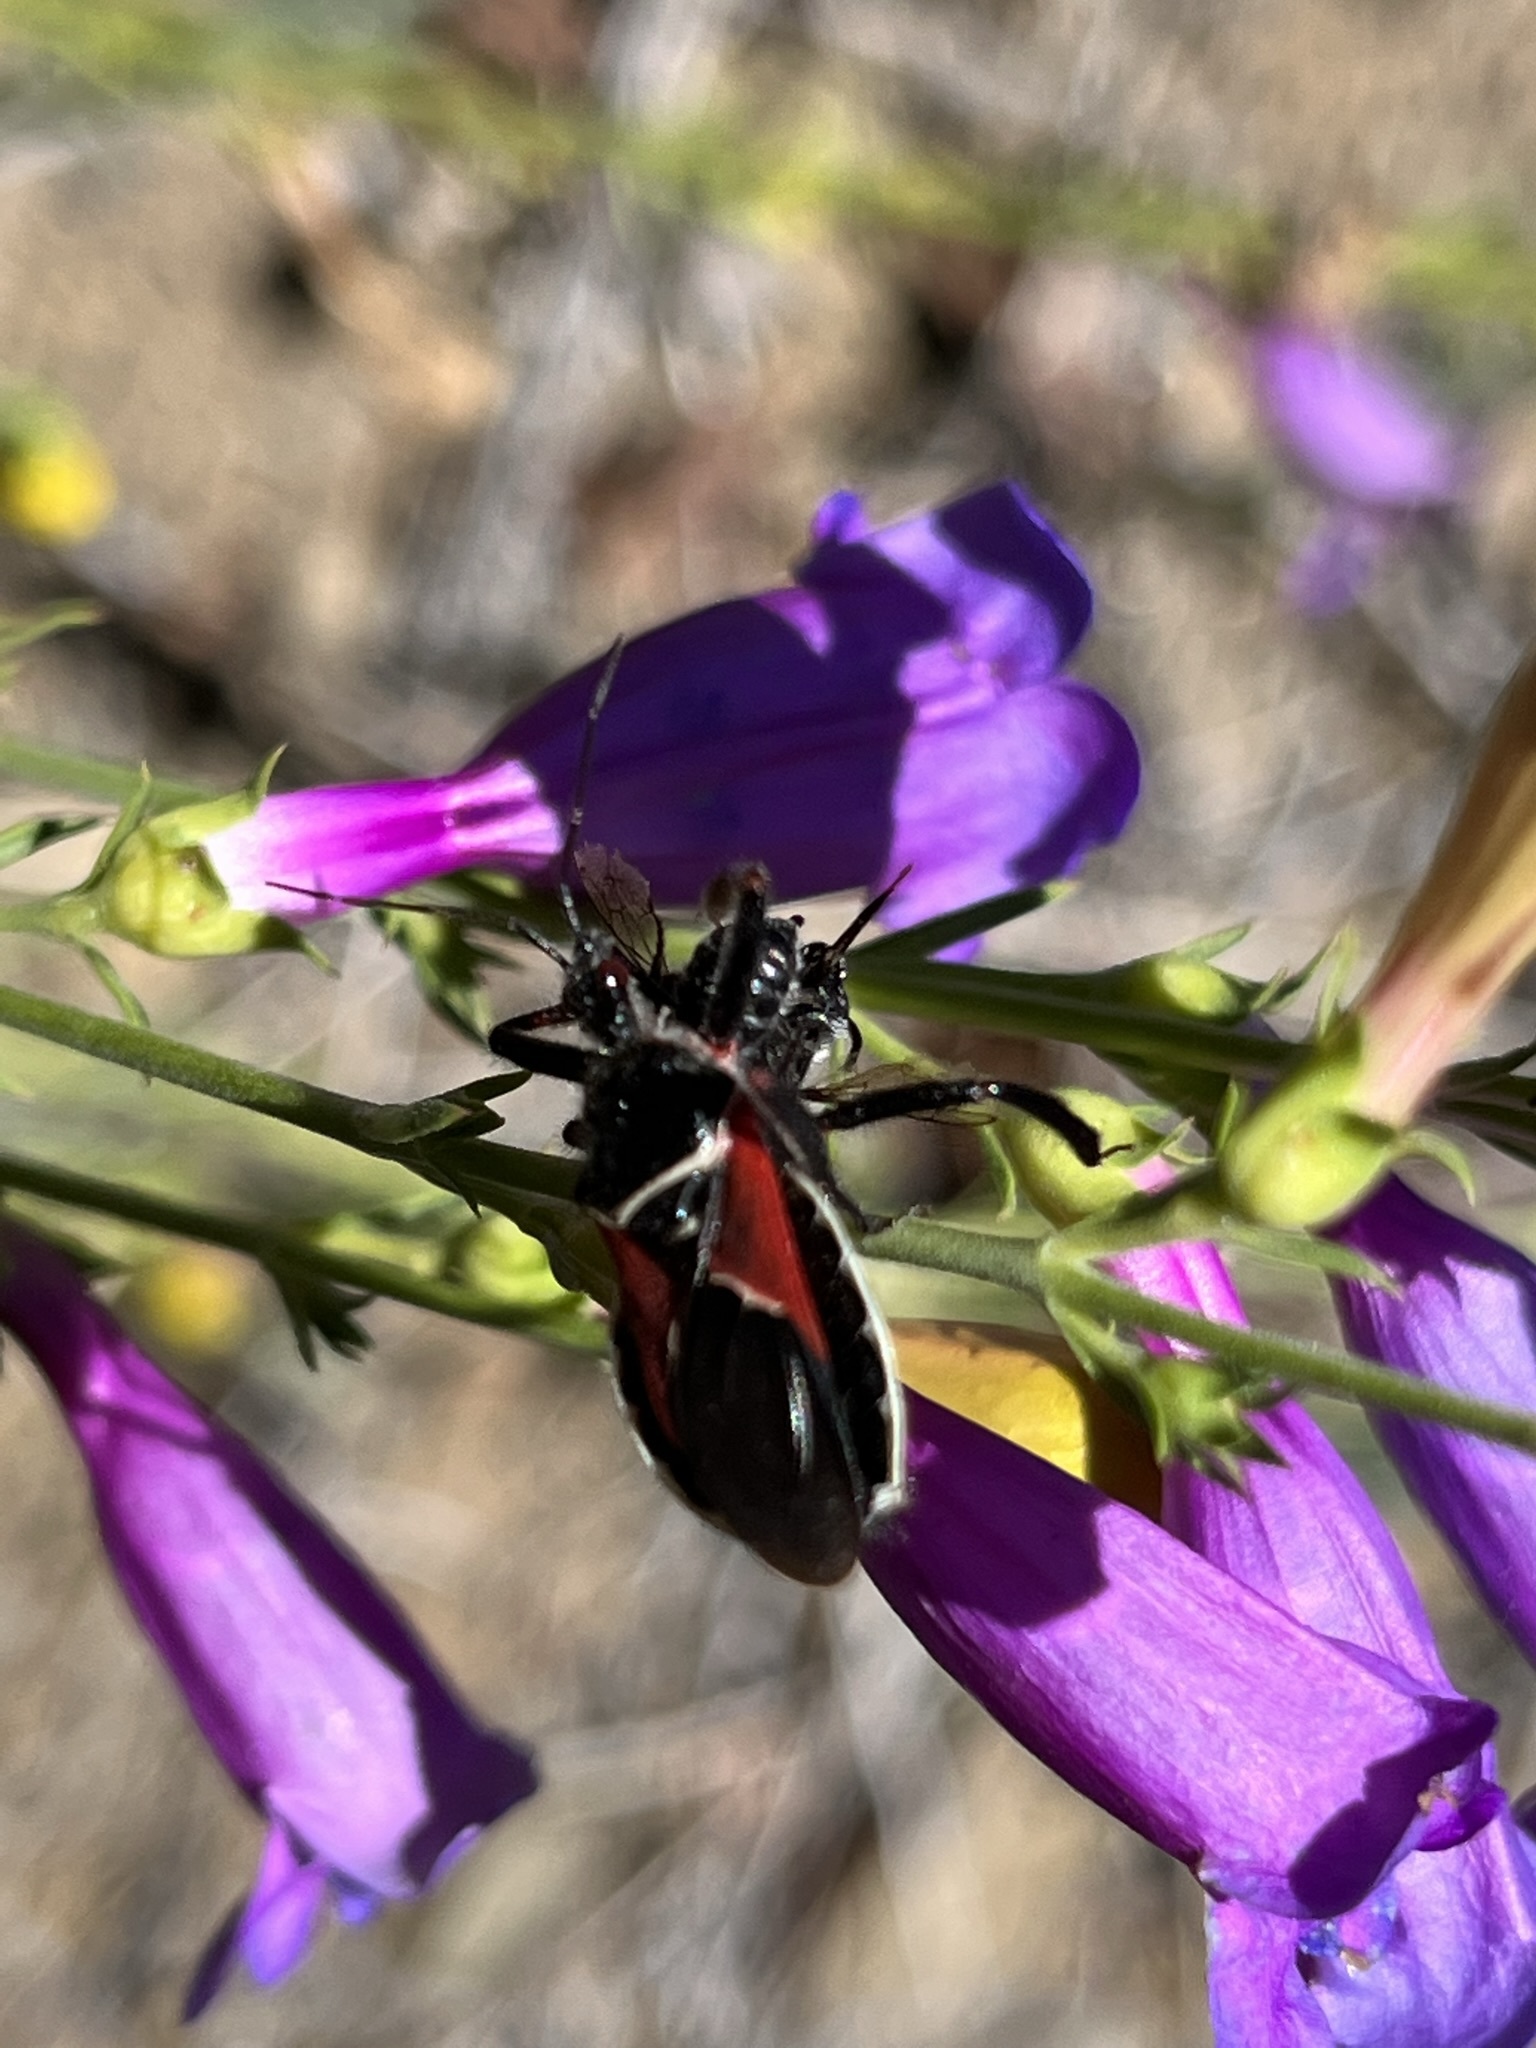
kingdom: Animalia
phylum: Arthropoda
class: Insecta
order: Hemiptera
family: Reduviidae
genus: Apiomerus
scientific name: Apiomerus californicus
